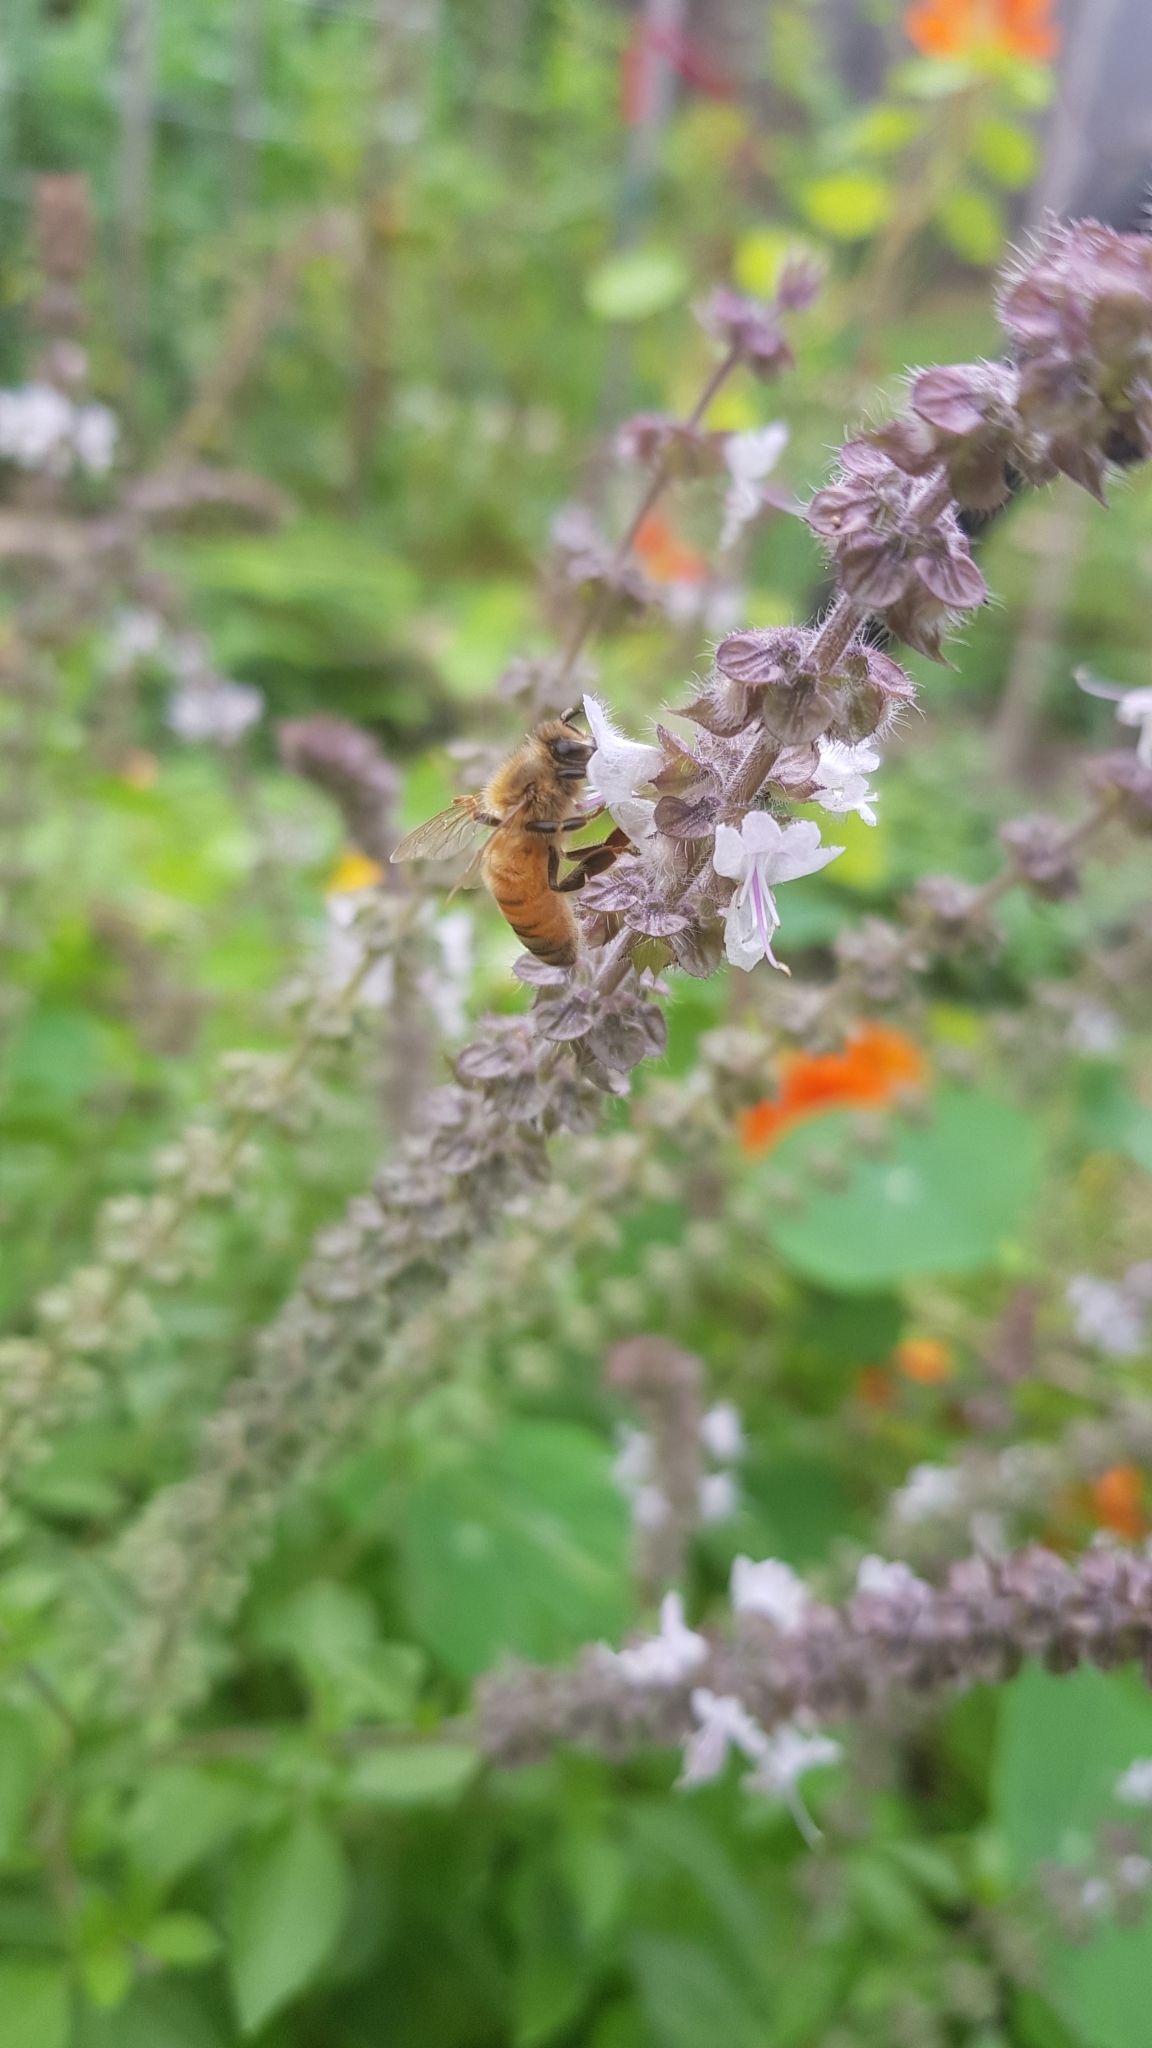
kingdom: Animalia
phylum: Arthropoda
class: Insecta
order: Hymenoptera
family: Apidae
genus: Apis
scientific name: Apis mellifera
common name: Honey bee
